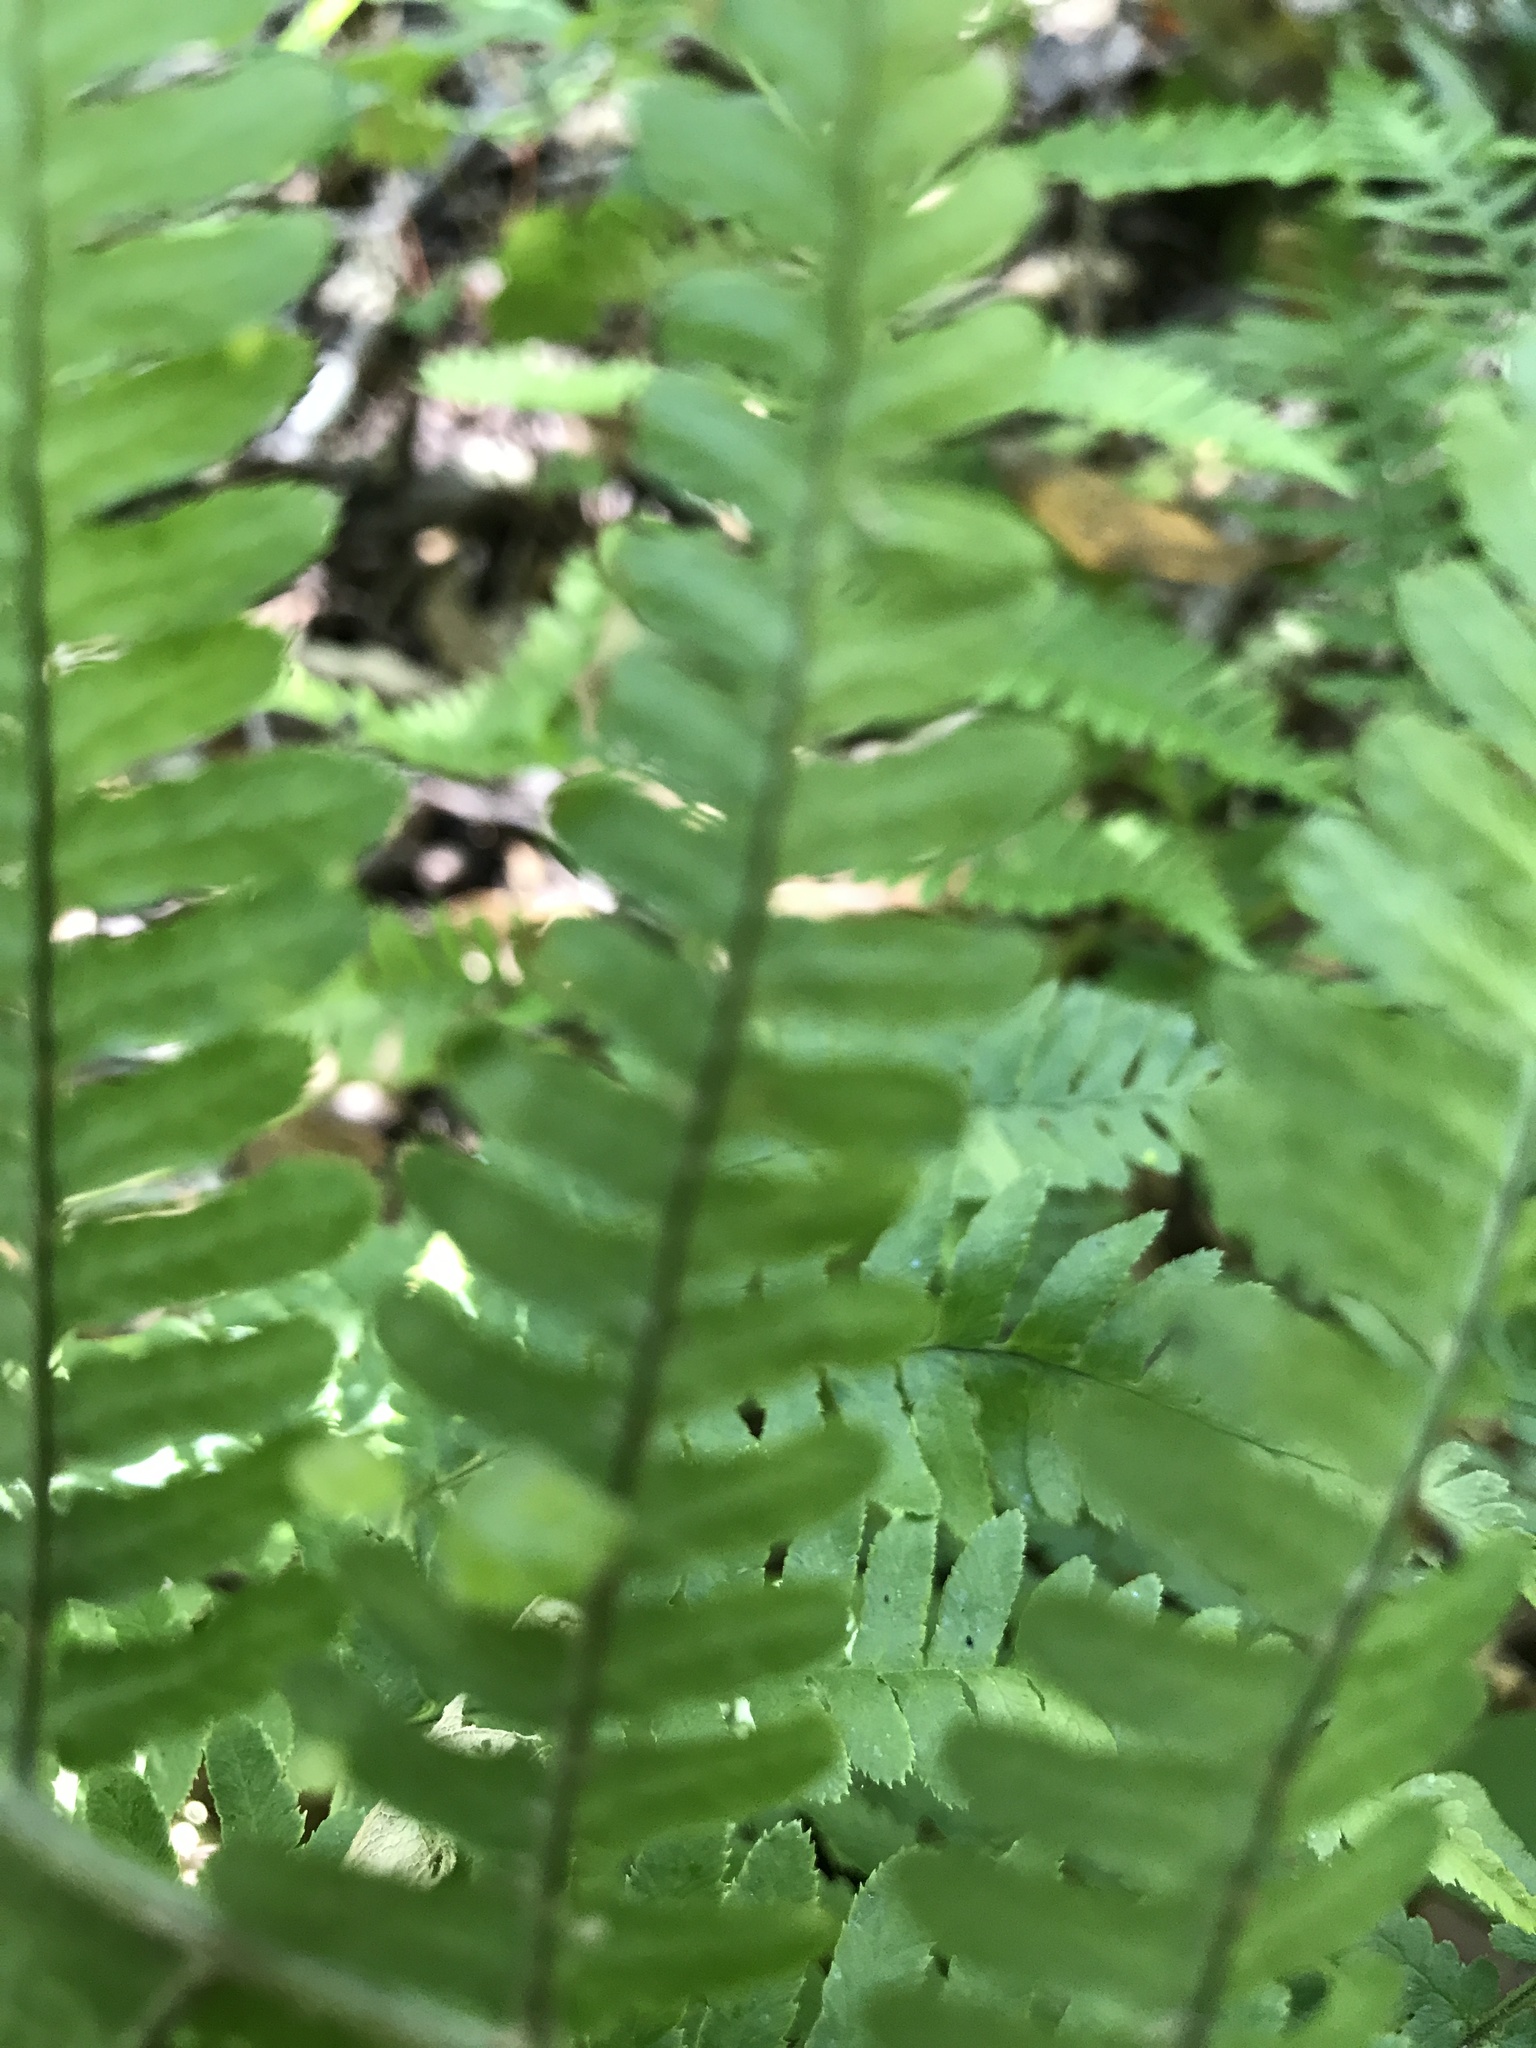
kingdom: Plantae
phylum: Tracheophyta
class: Polypodiopsida
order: Polypodiales
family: Dryopteridaceae
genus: Dryopteris
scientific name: Dryopteris arguta
